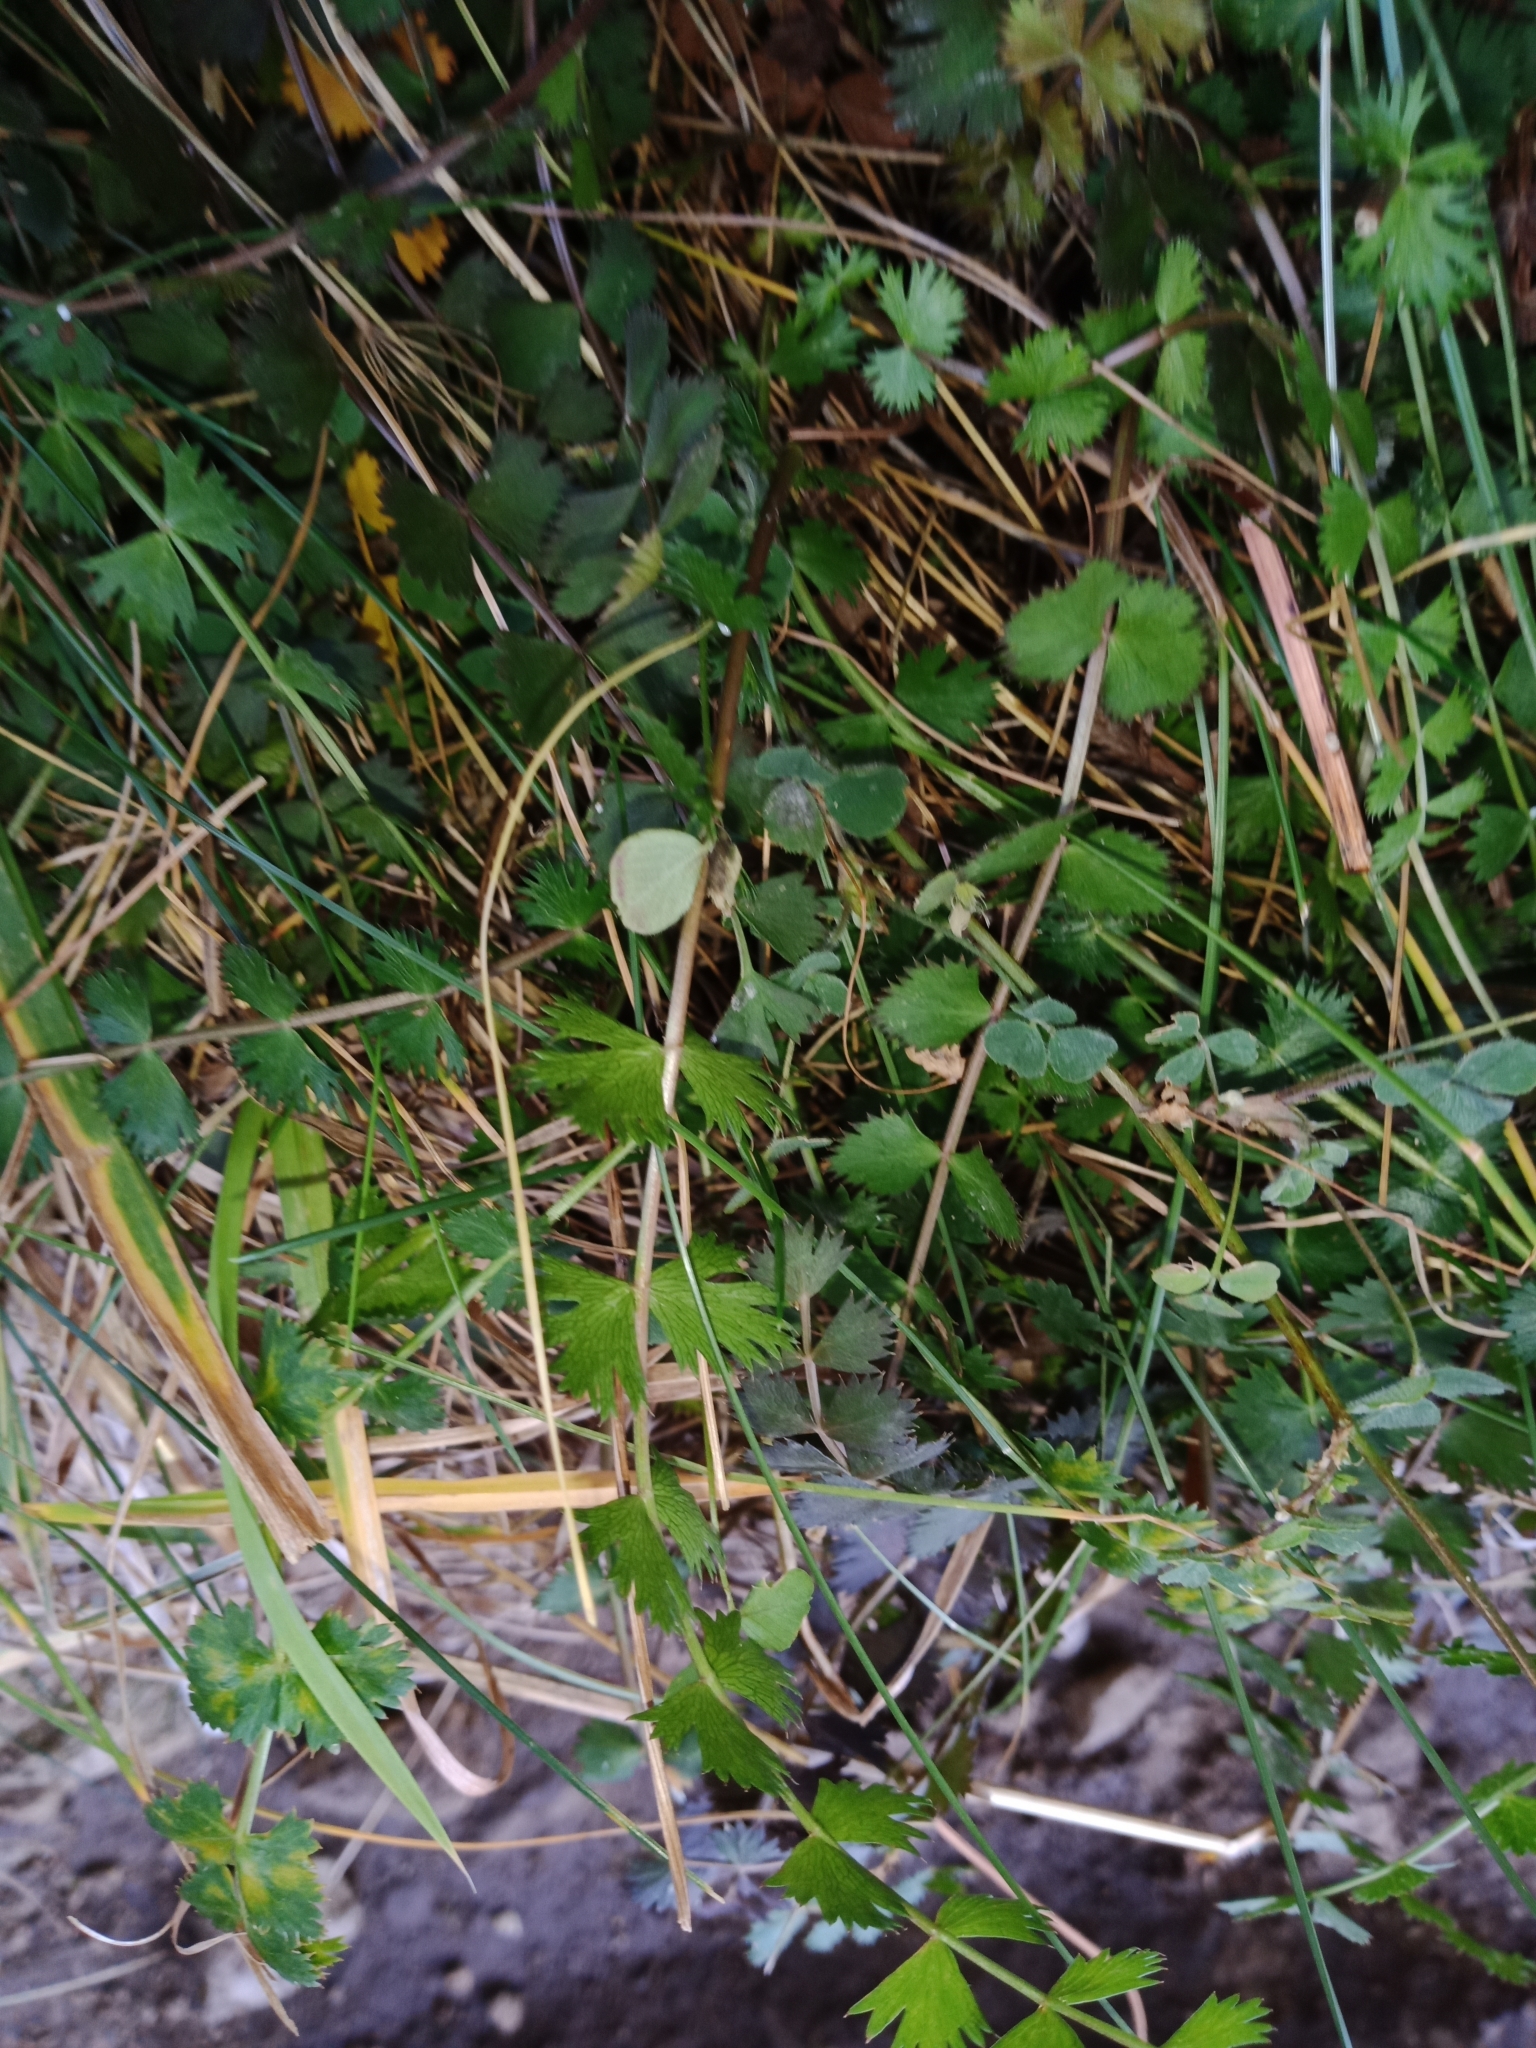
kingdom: Plantae
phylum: Tracheophyta
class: Magnoliopsida
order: Apiales
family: Apiaceae
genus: Anisotome
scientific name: Anisotome aromatica
